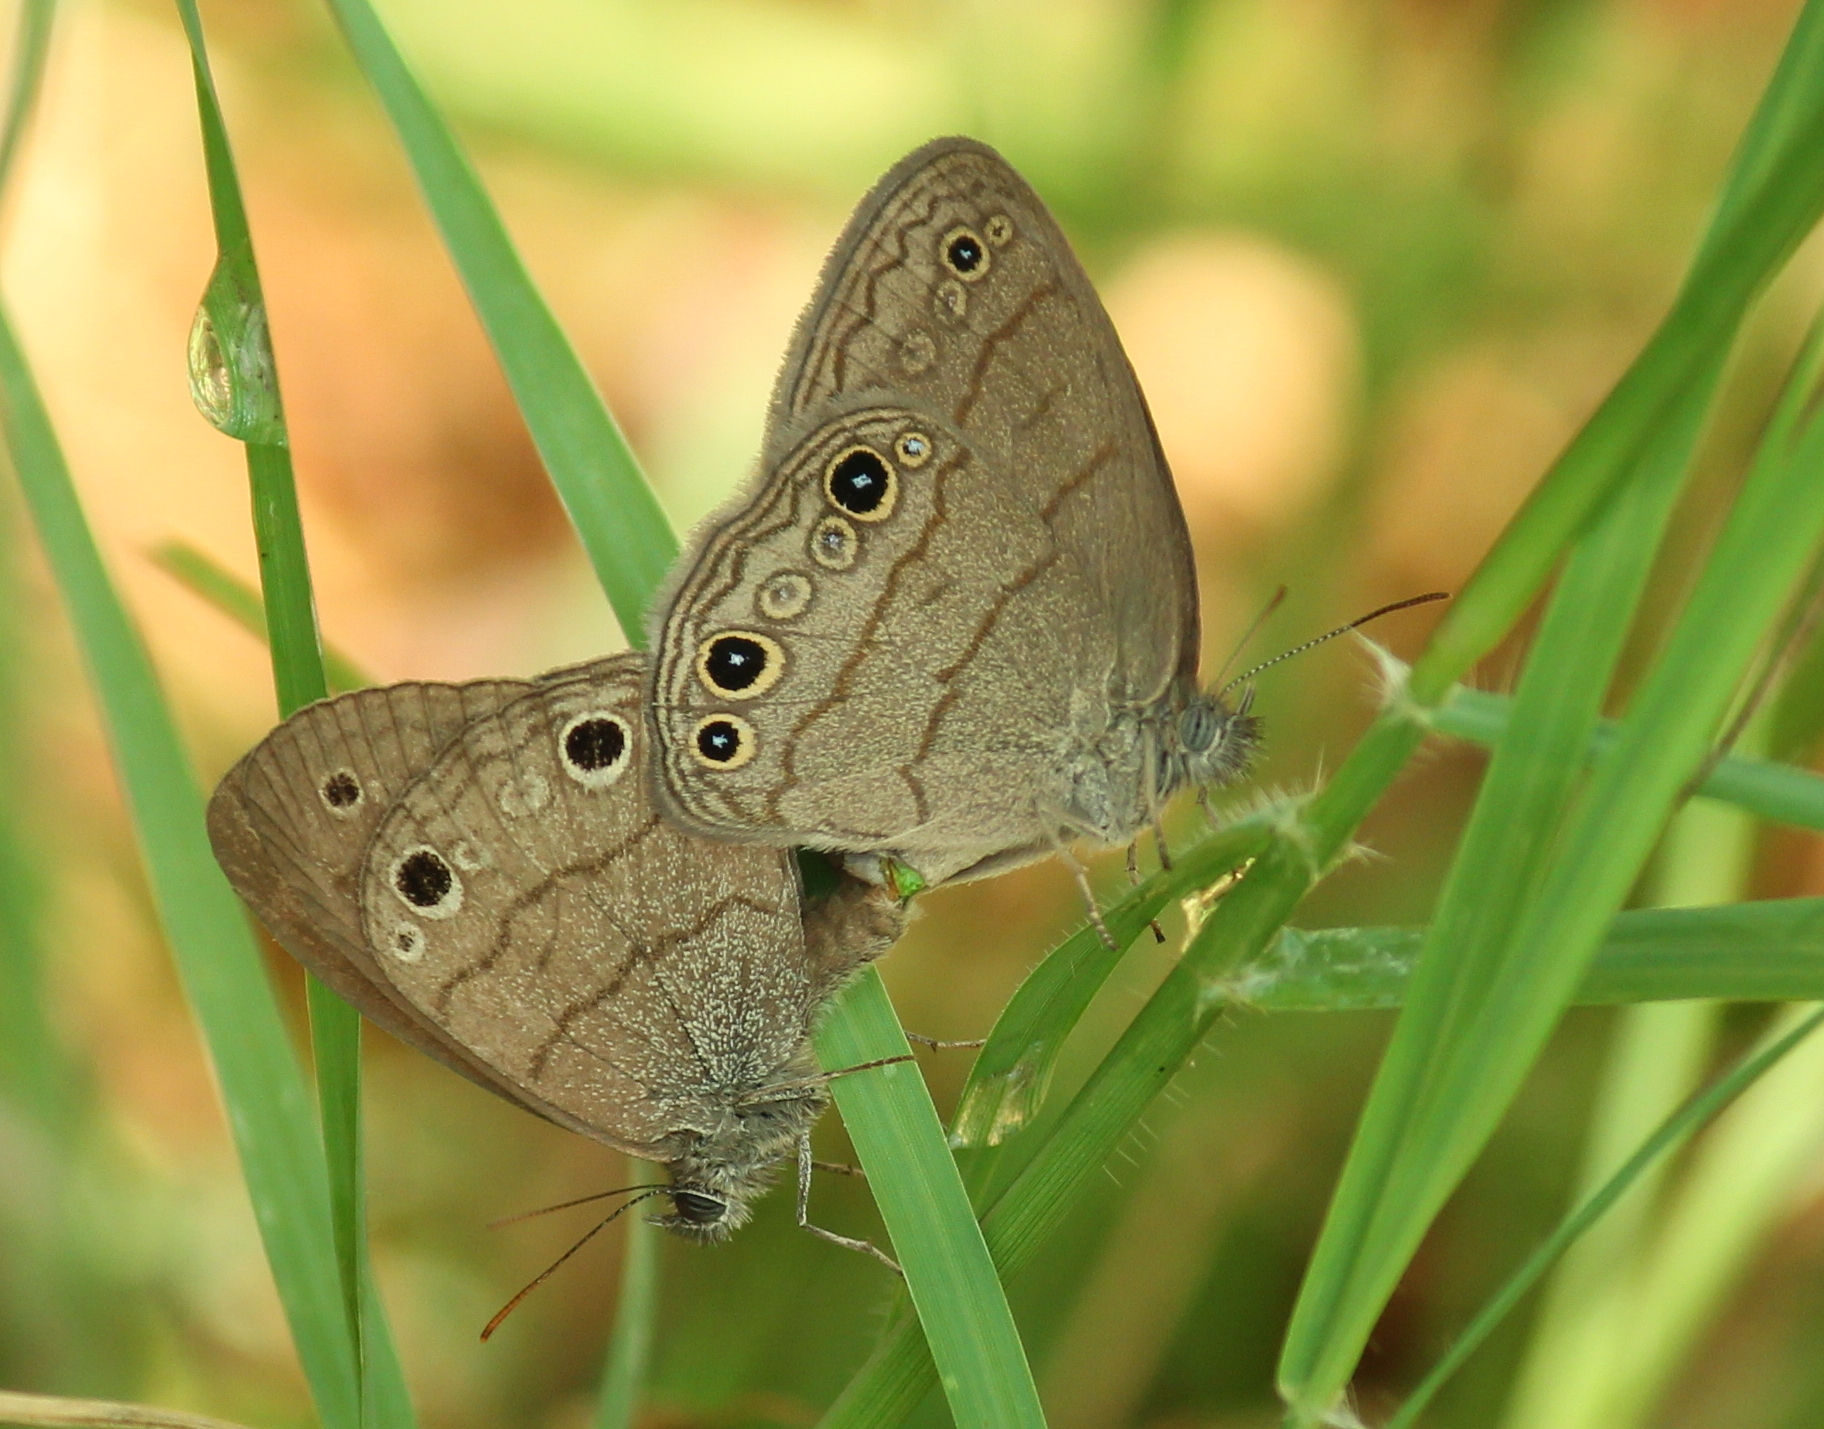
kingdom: Animalia
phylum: Arthropoda
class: Insecta
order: Lepidoptera
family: Nymphalidae
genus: Hermeuptychia
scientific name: Hermeuptychia hermes
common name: Hermes satyr
